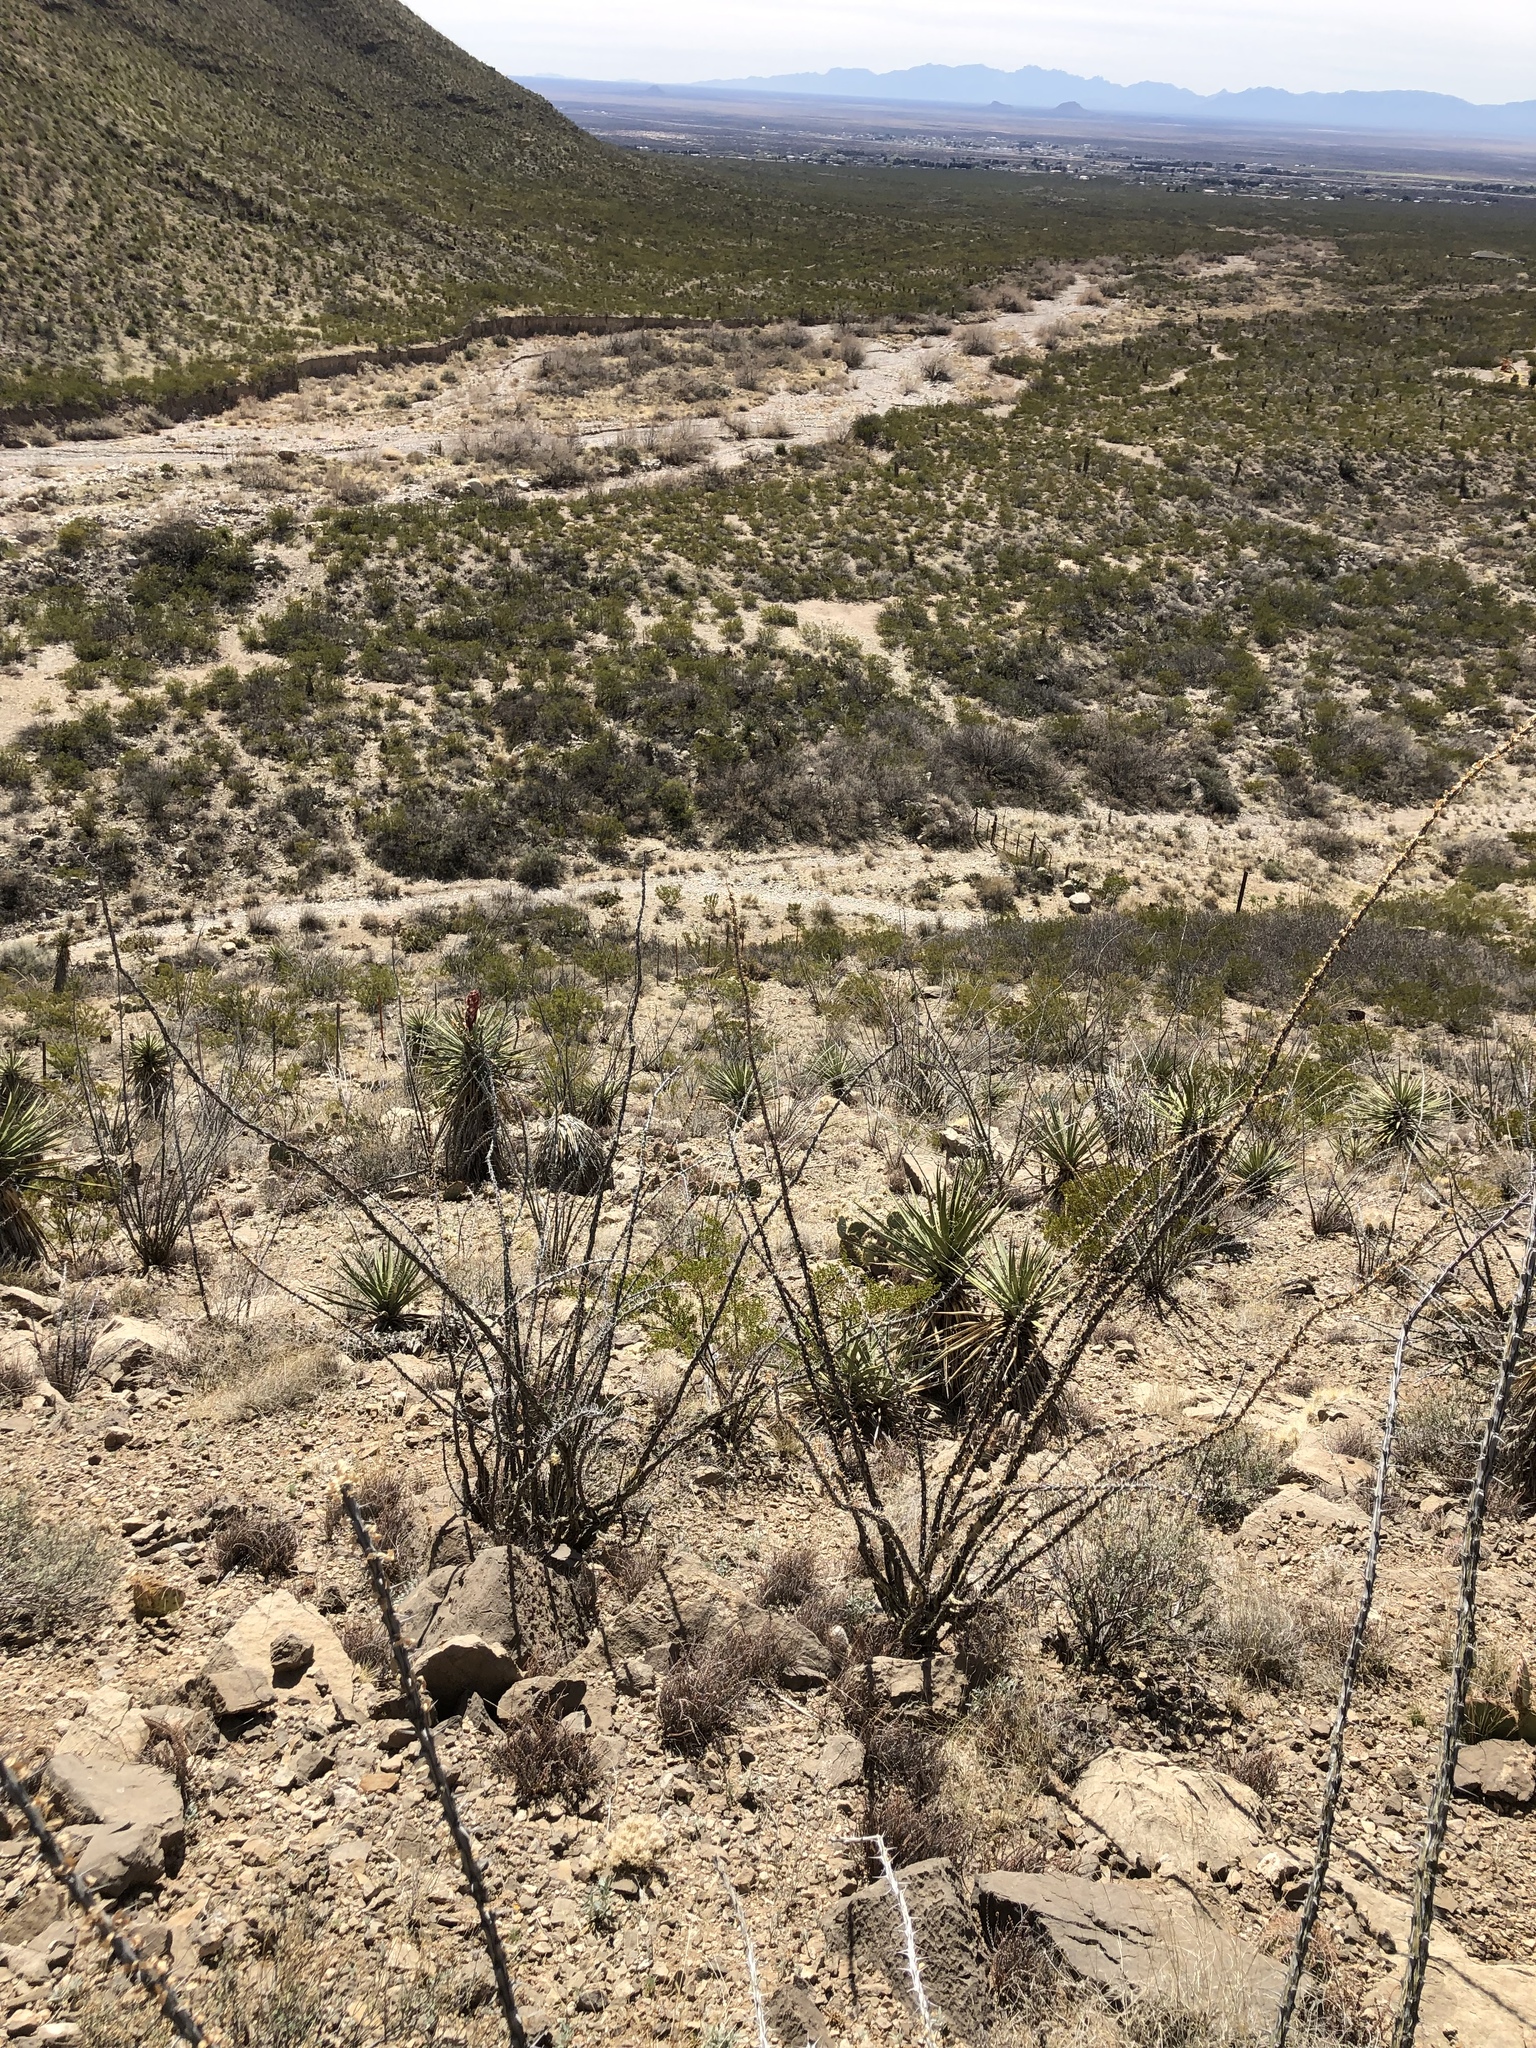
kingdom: Plantae
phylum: Tracheophyta
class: Magnoliopsida
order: Ericales
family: Fouquieriaceae
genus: Fouquieria
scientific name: Fouquieria splendens
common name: Vine-cactus
